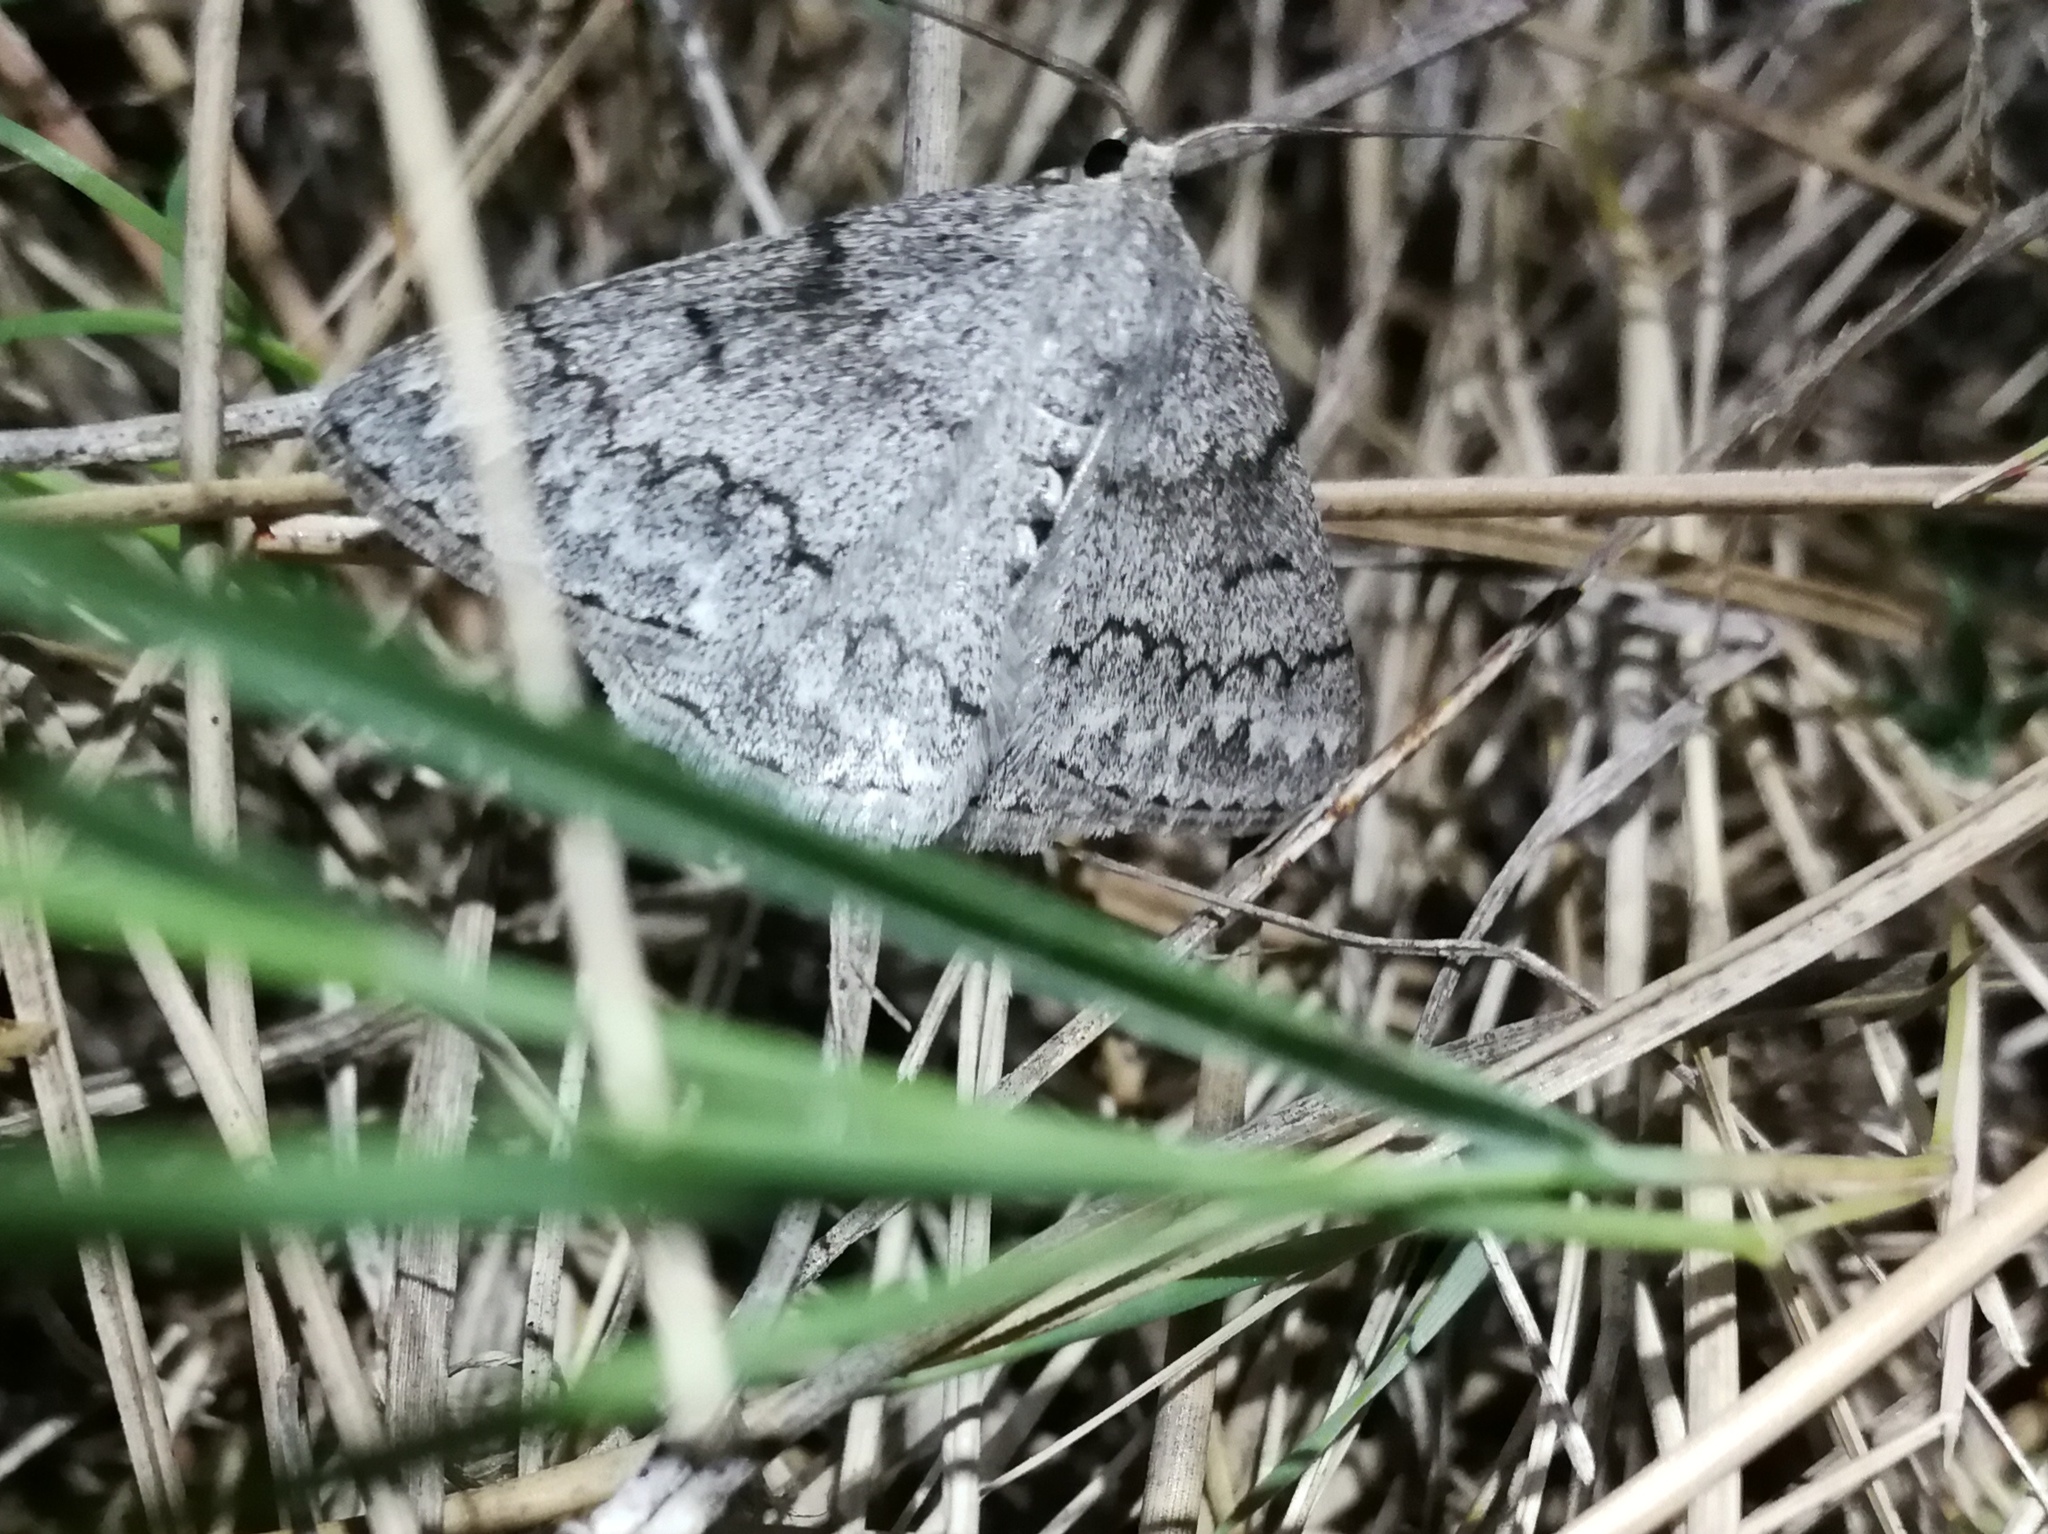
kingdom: Animalia
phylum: Arthropoda
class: Insecta
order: Lepidoptera
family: Geometridae
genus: Pseudoterpna
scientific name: Pseudoterpna coronillaria
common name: Jersey emerald
